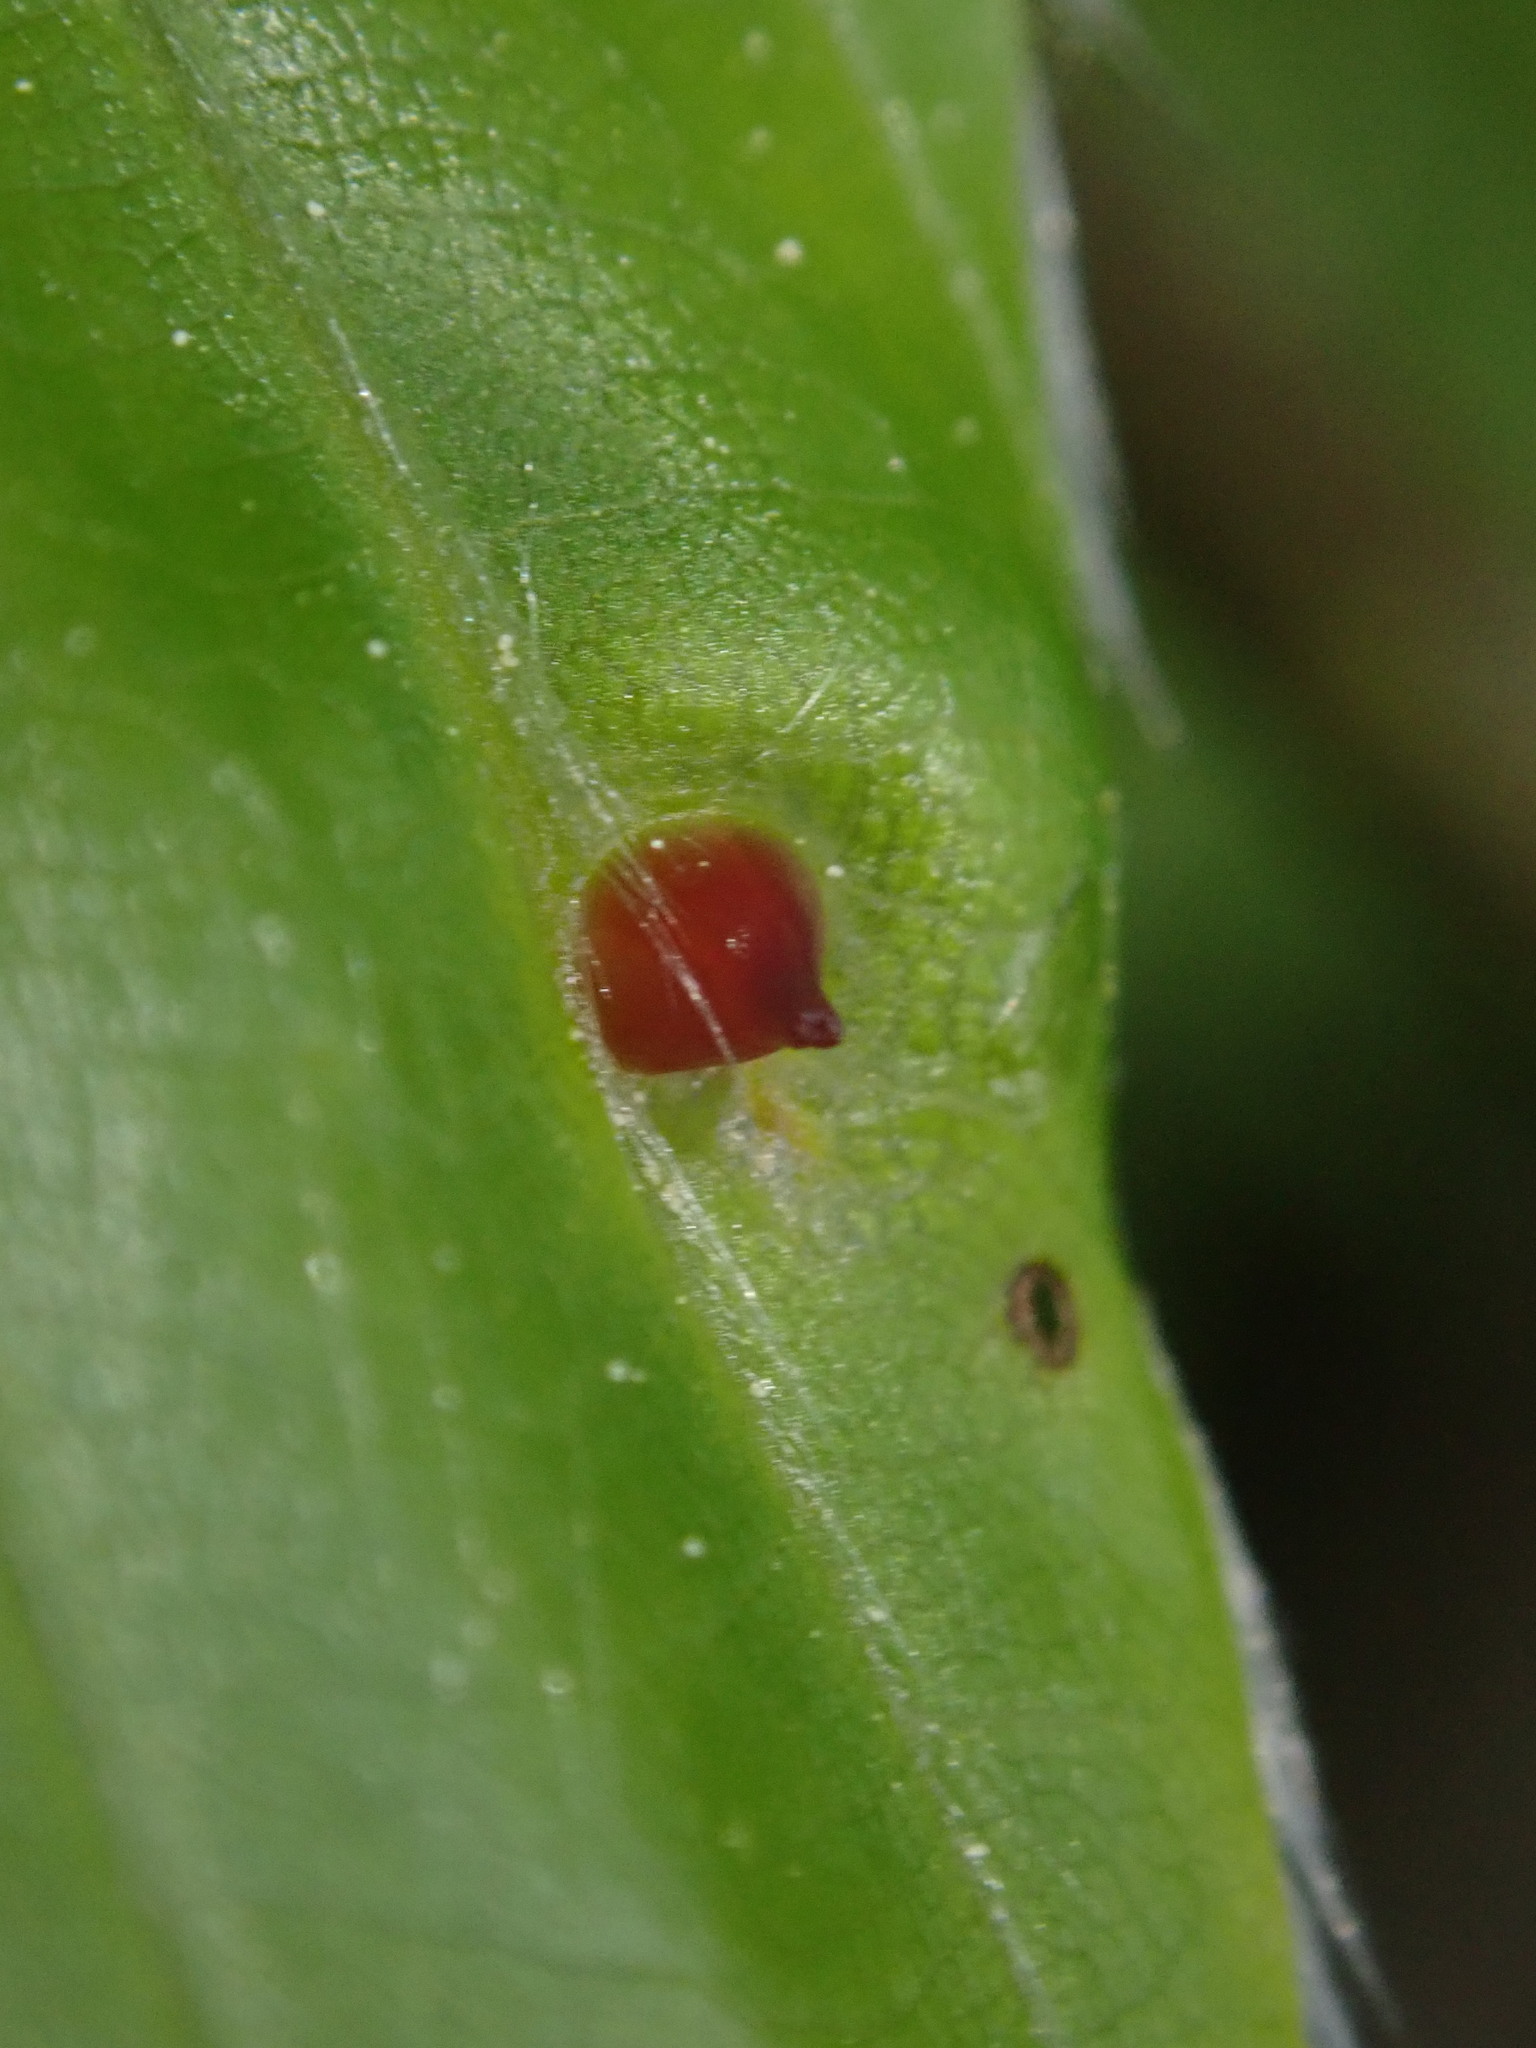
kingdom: Animalia
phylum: Arthropoda
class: Insecta
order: Diptera
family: Cecidomyiidae
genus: Mikiola
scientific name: Mikiola fagi
